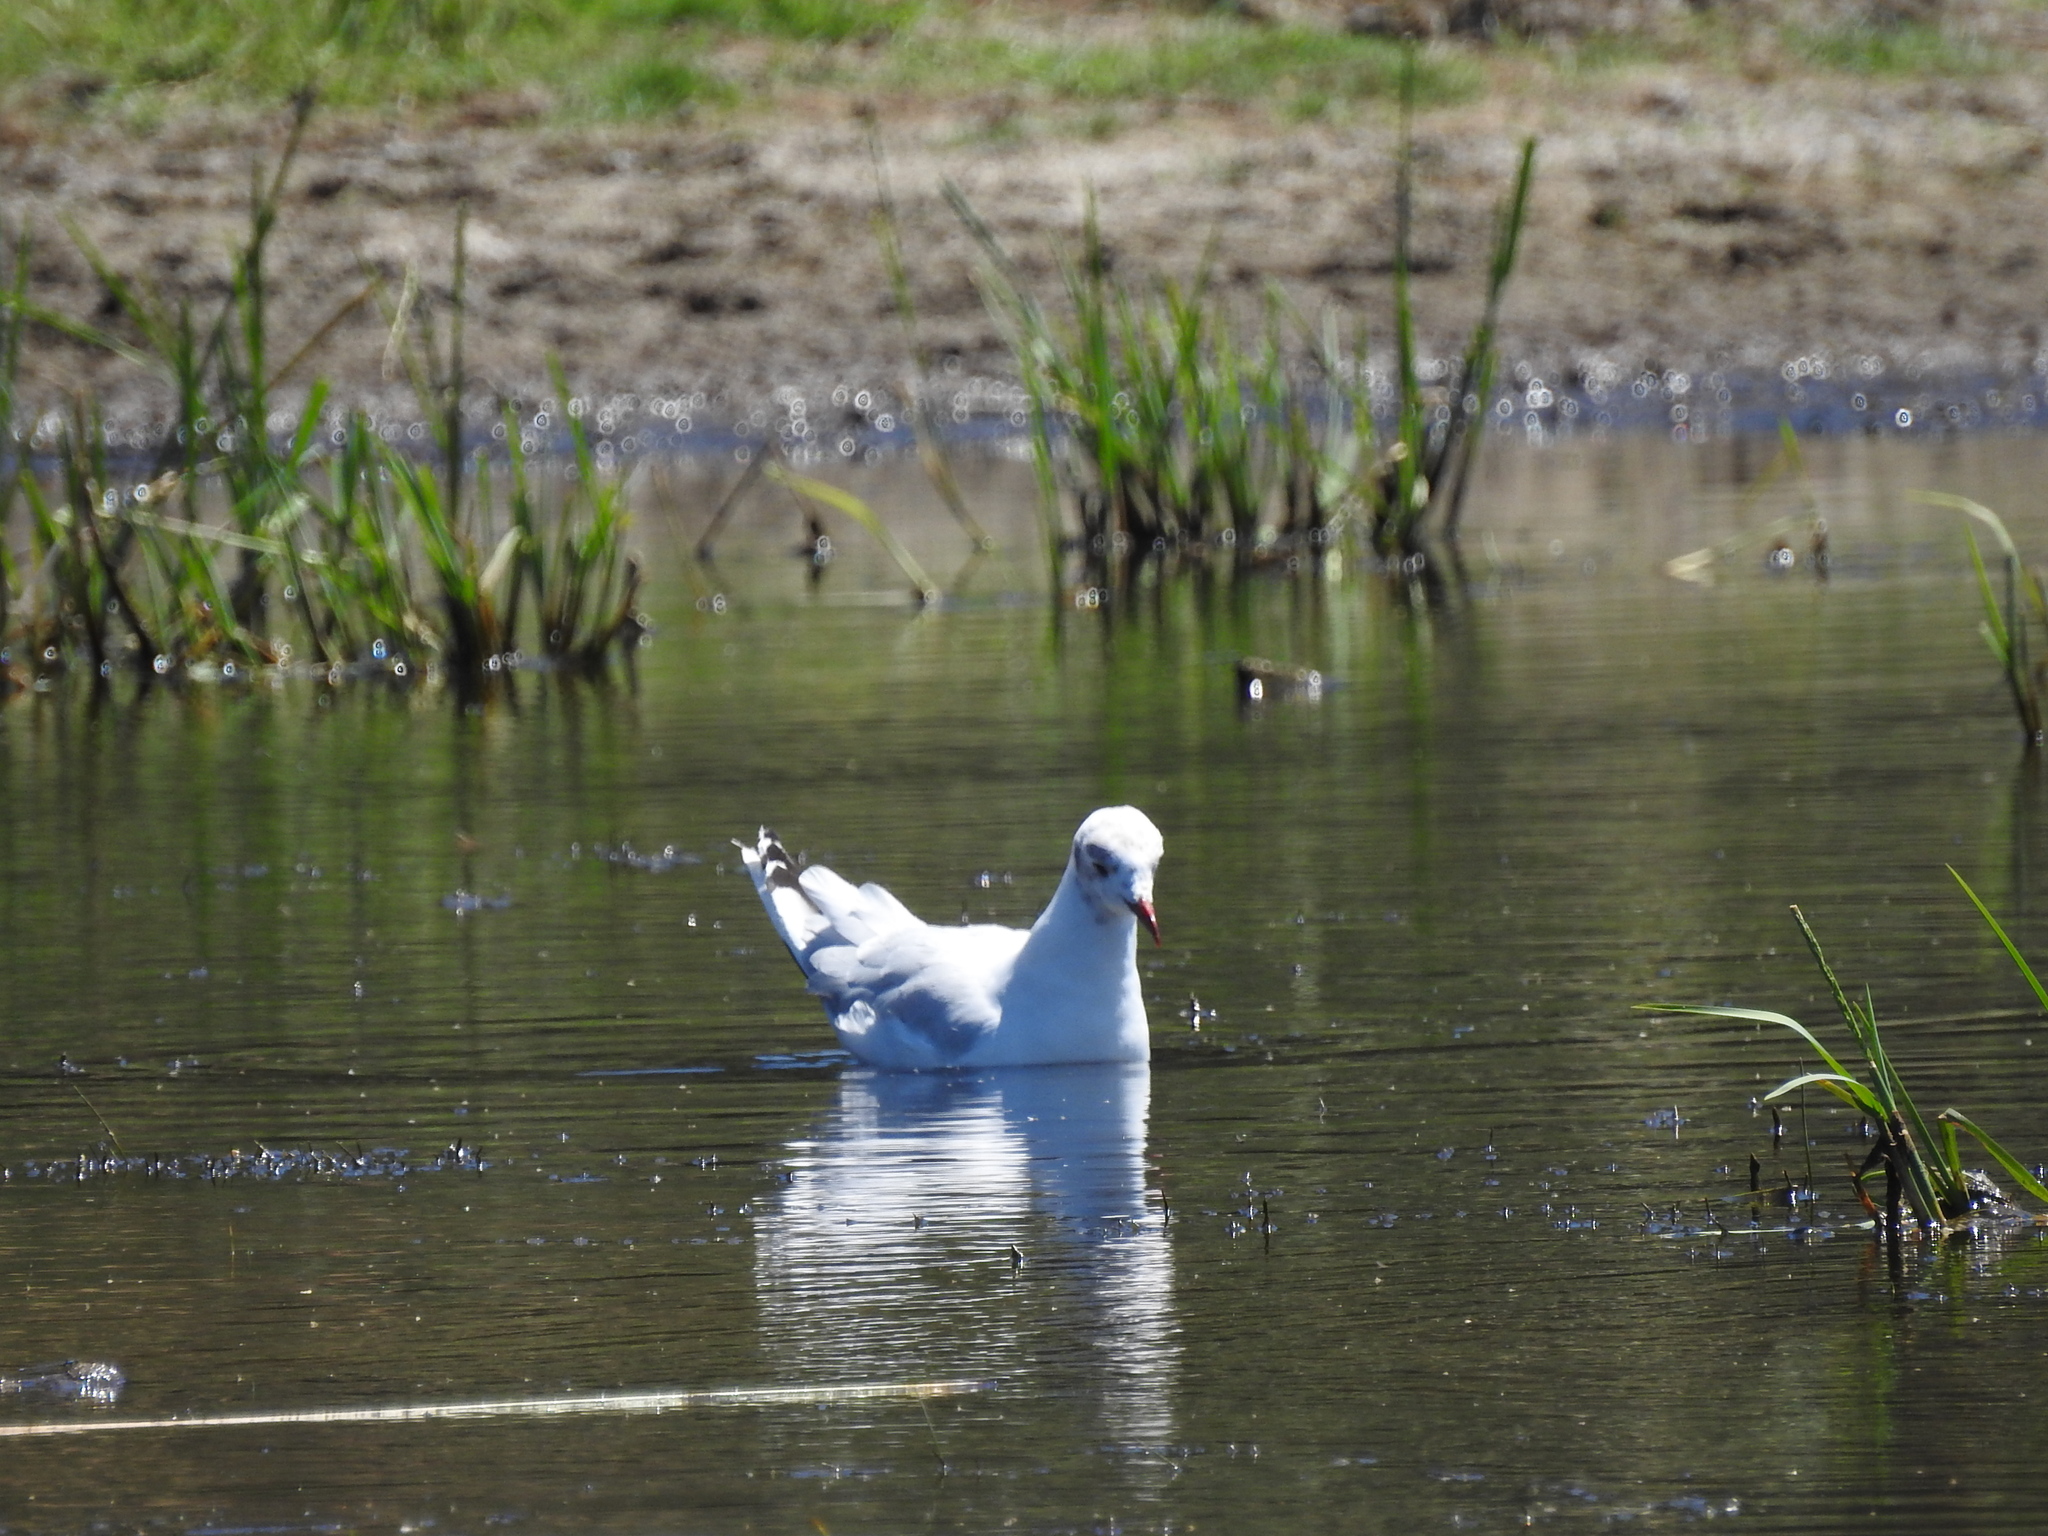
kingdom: Animalia
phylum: Chordata
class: Aves
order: Charadriiformes
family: Laridae
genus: Chroicocephalus
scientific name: Chroicocephalus maculipennis
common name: Brown-hooded gull
